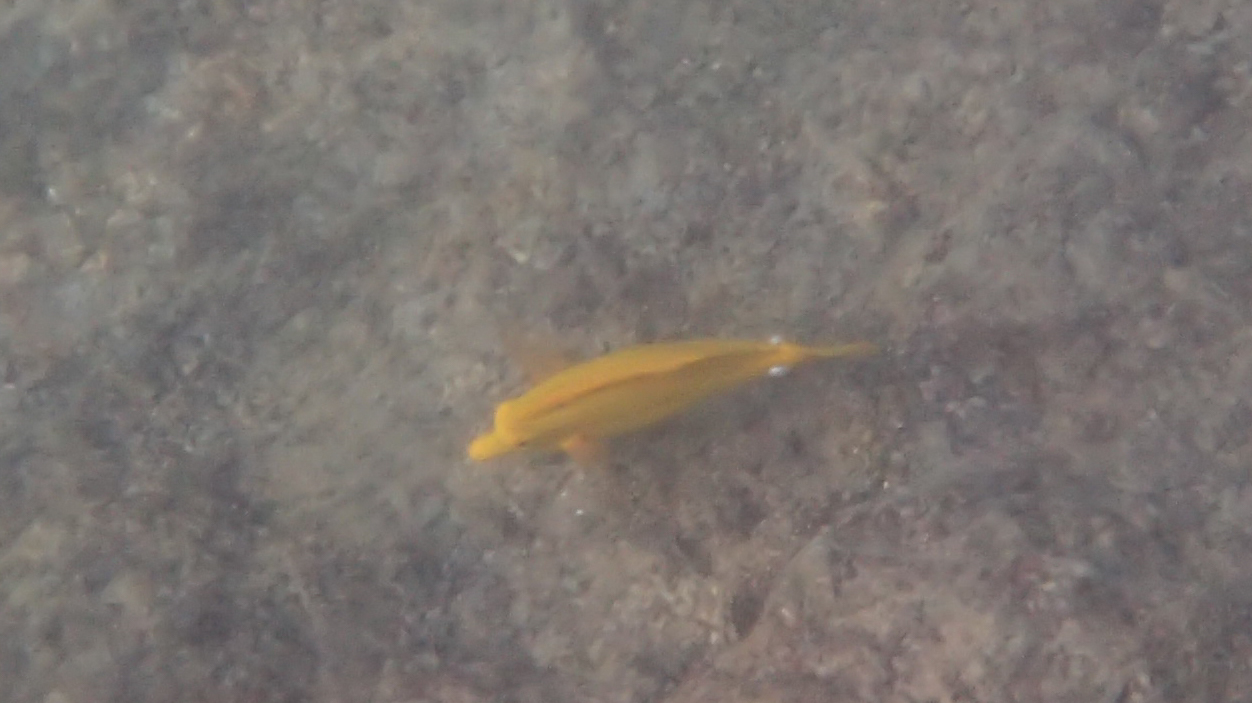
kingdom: Animalia
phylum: Chordata
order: Perciformes
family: Acanthuridae
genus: Zebrasoma
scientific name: Zebrasoma flavescens
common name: Yellow tang
